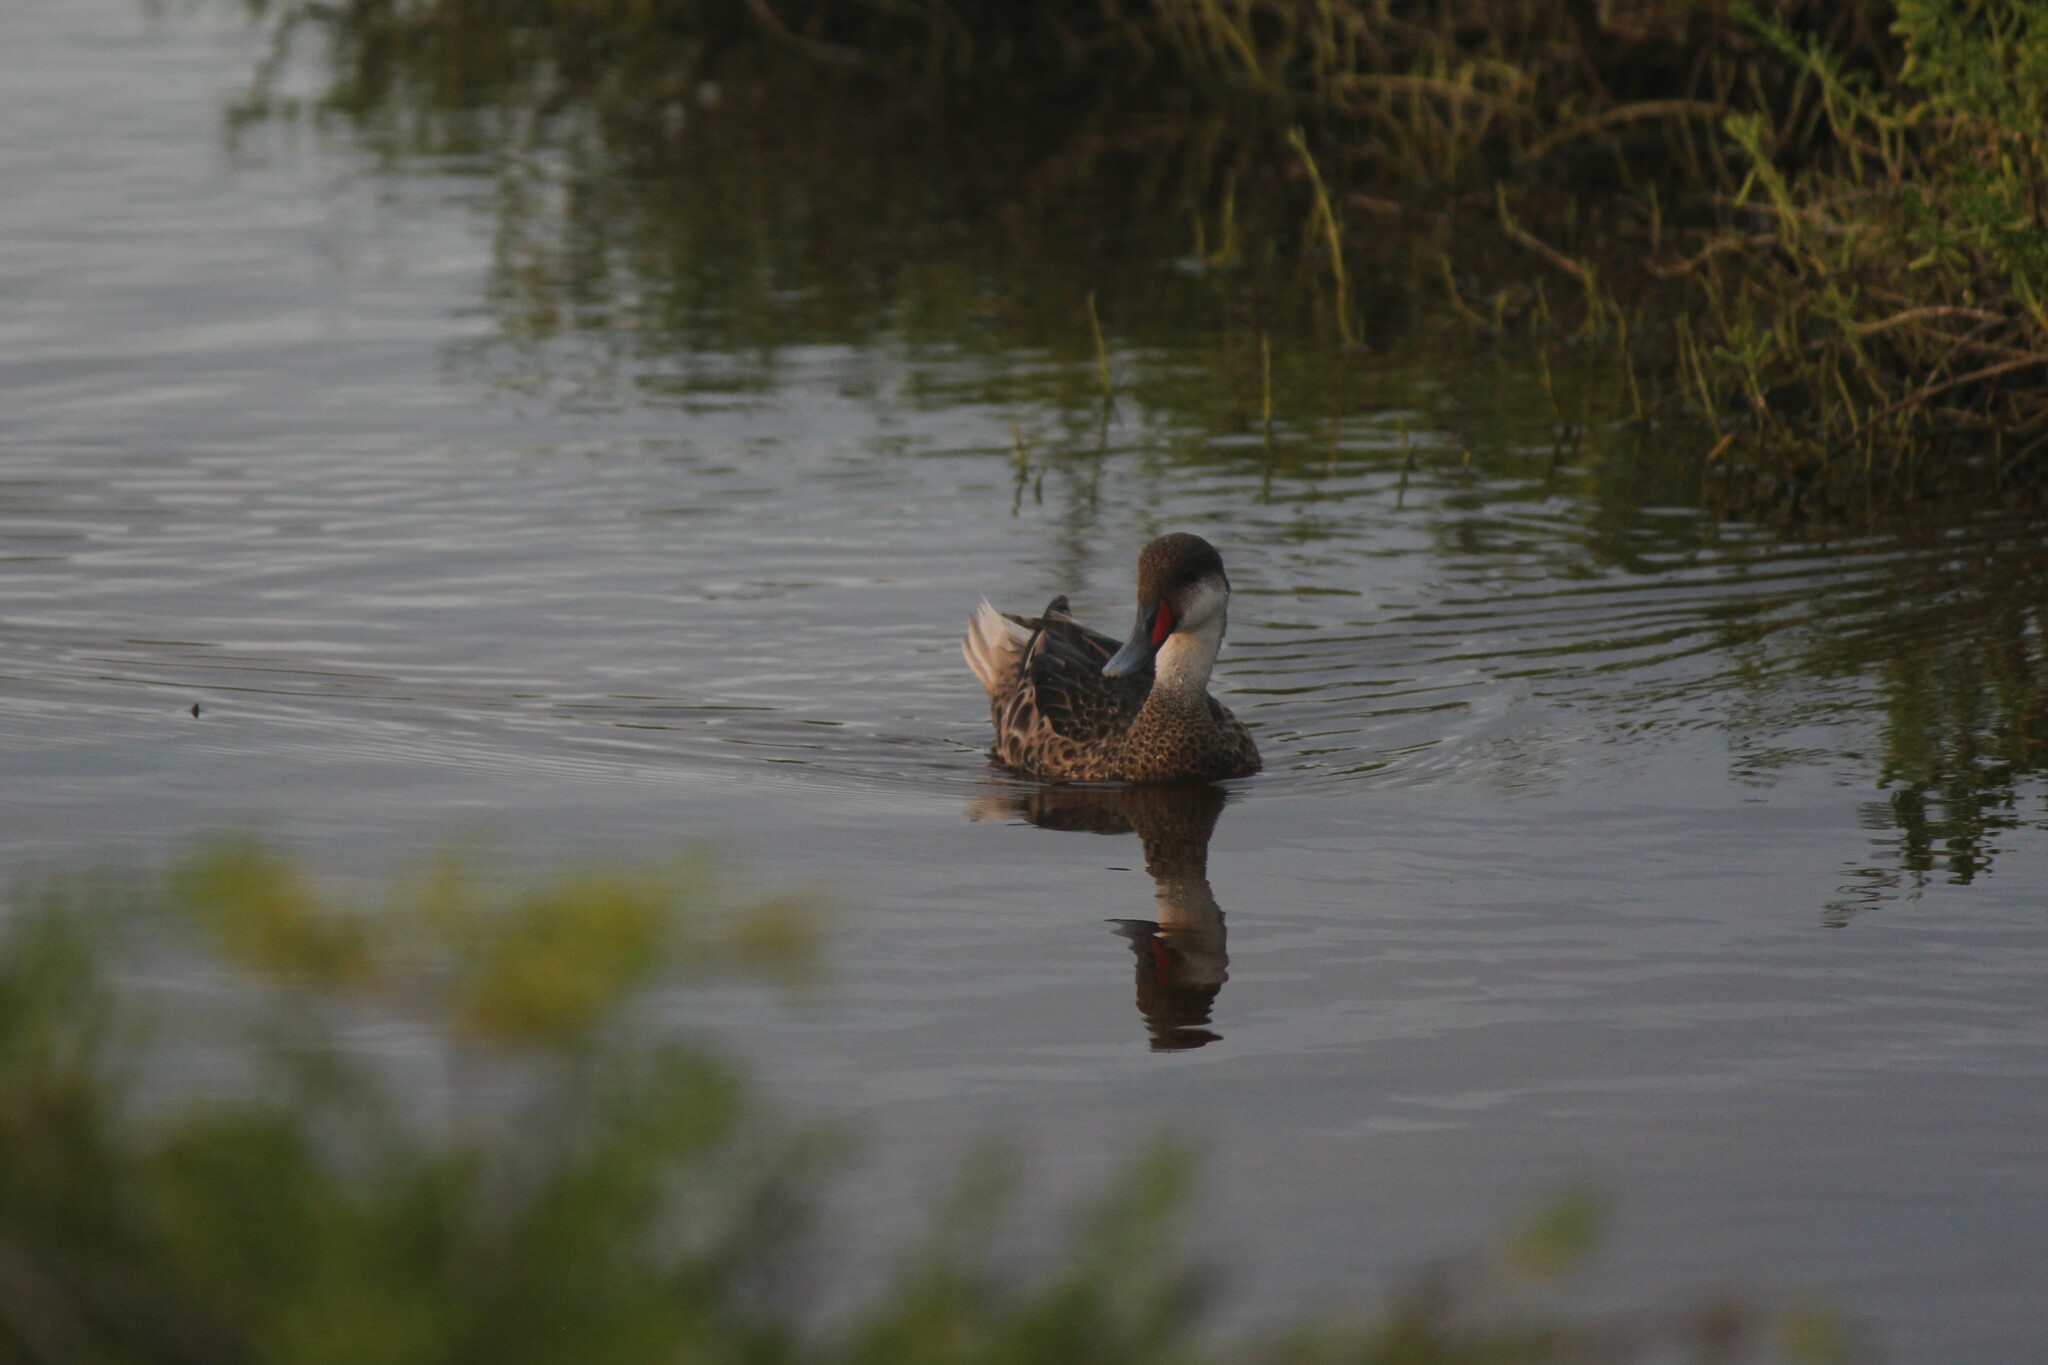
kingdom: Animalia
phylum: Chordata
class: Aves
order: Anseriformes
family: Anatidae
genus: Anas
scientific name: Anas bahamensis
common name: White-cheeked pintail
